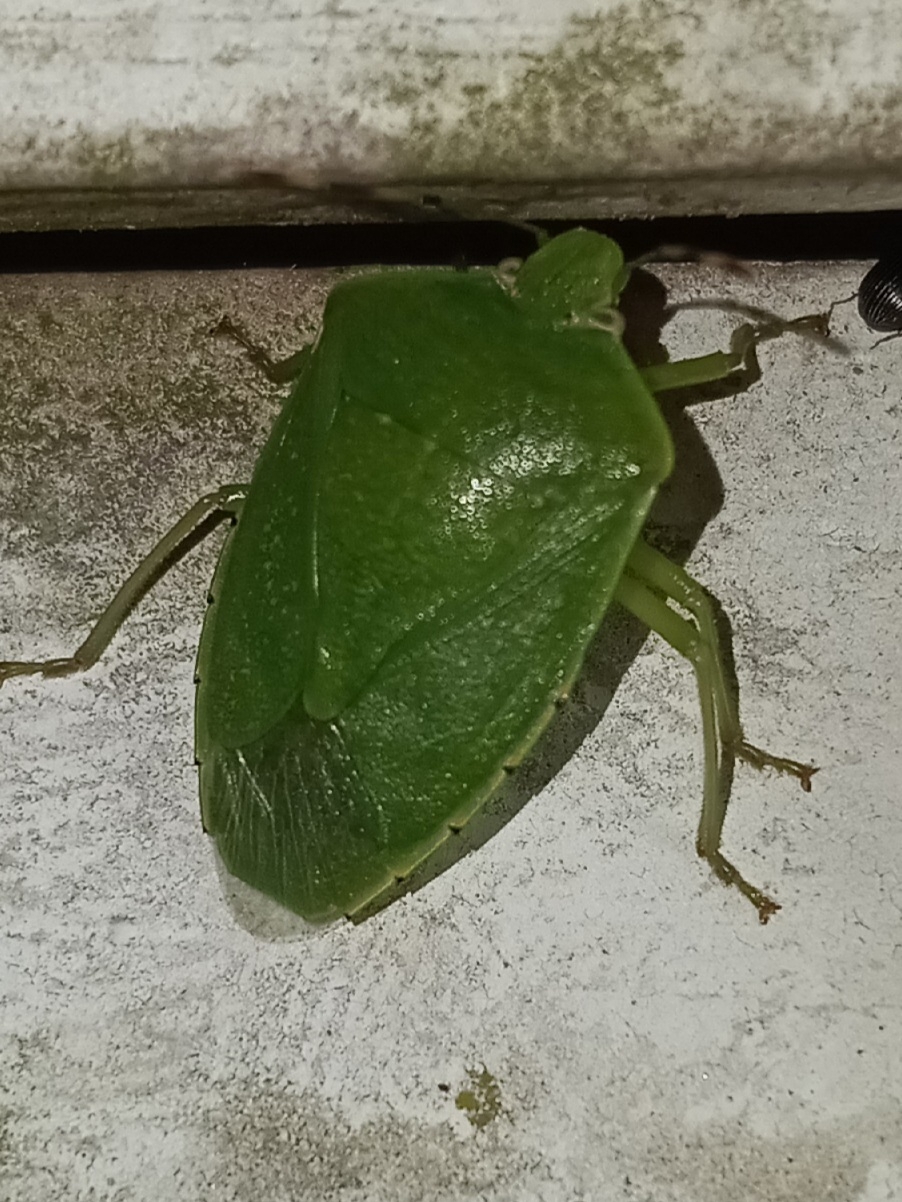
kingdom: Animalia
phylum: Arthropoda
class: Insecta
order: Hemiptera
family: Pentatomidae
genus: Chinavia
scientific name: Chinavia hilaris
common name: Green stink bug
